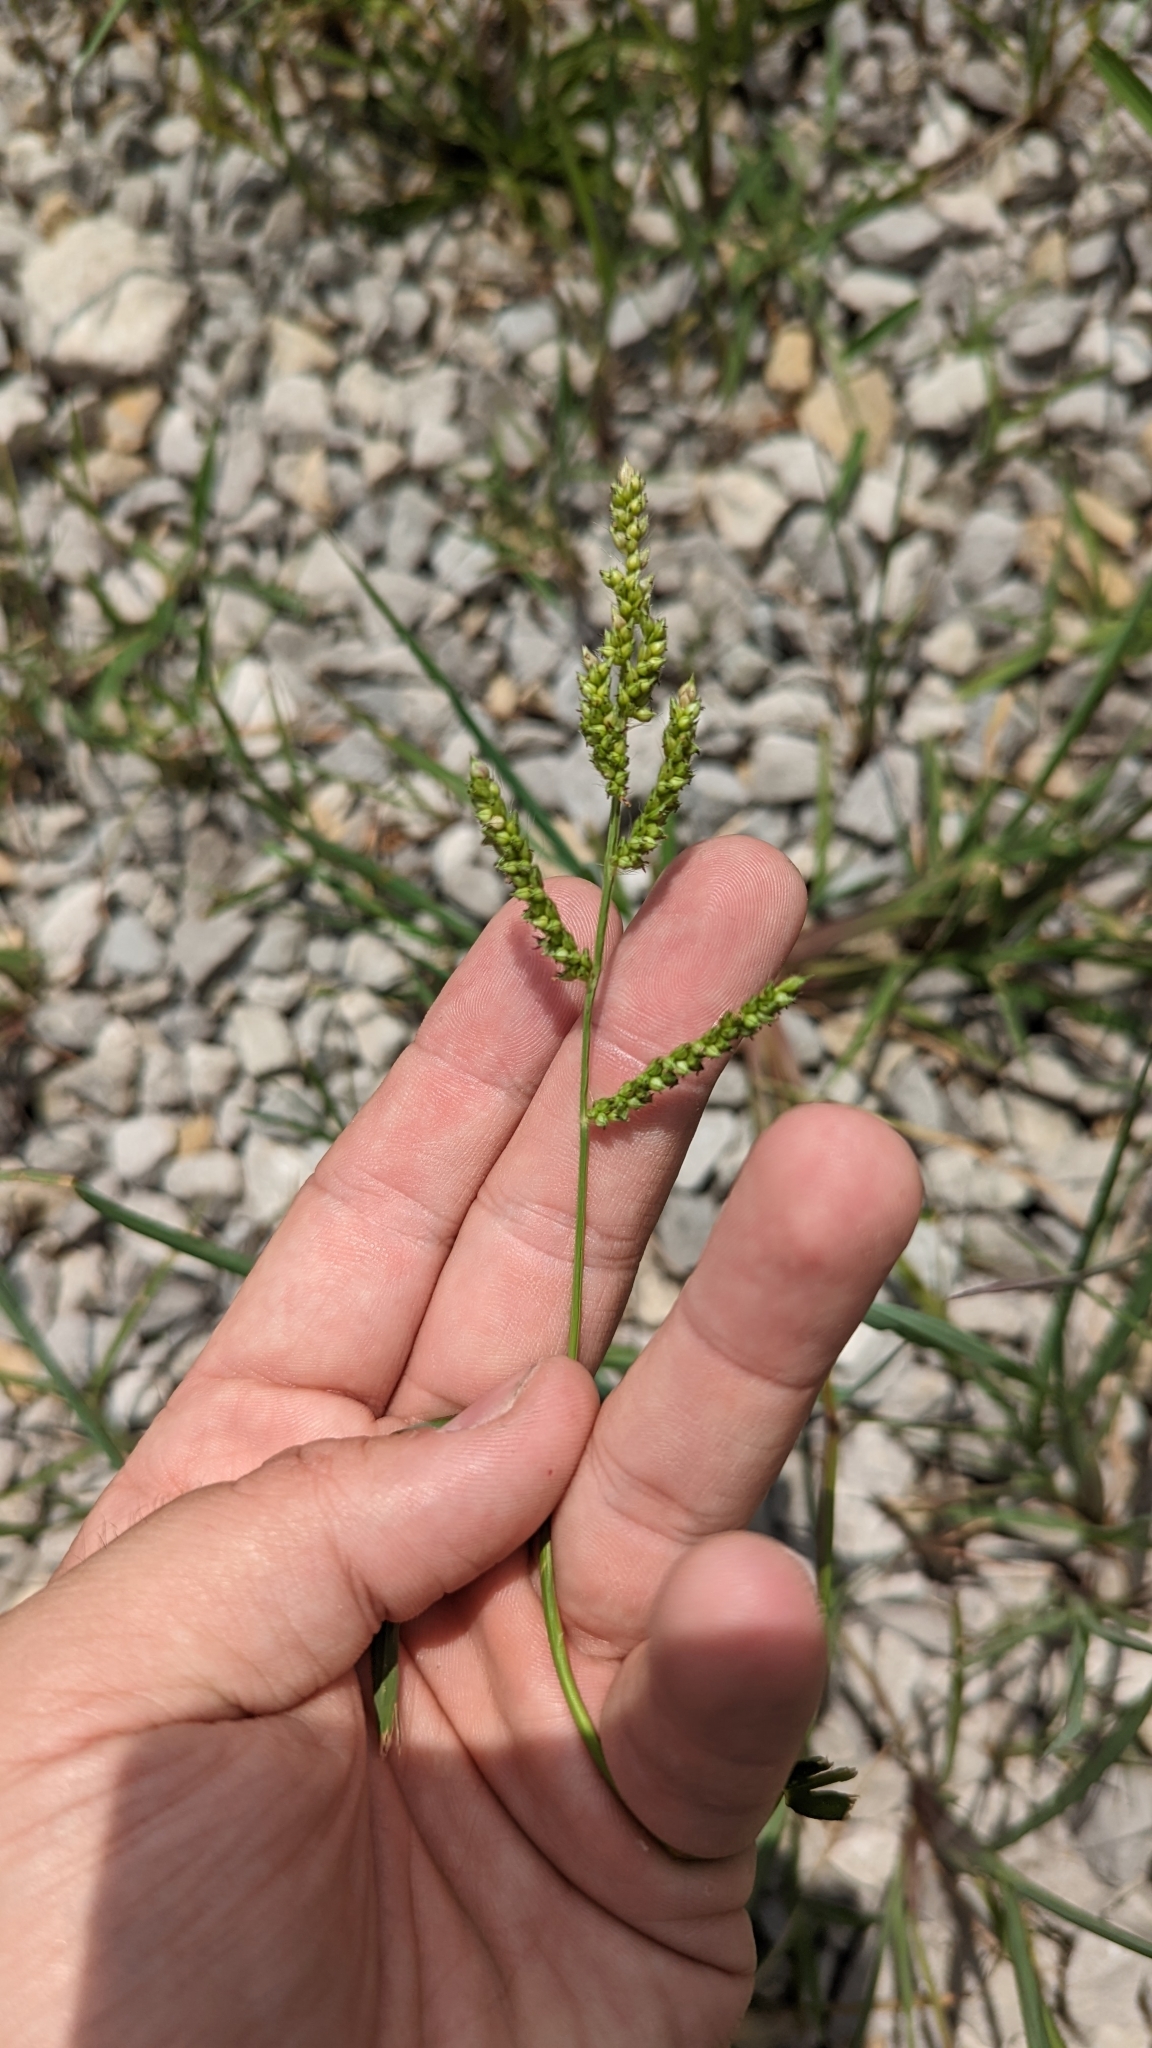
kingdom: Plantae
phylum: Tracheophyta
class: Liliopsida
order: Poales
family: Poaceae
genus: Echinochloa
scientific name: Echinochloa crus-galli
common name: Cockspur
